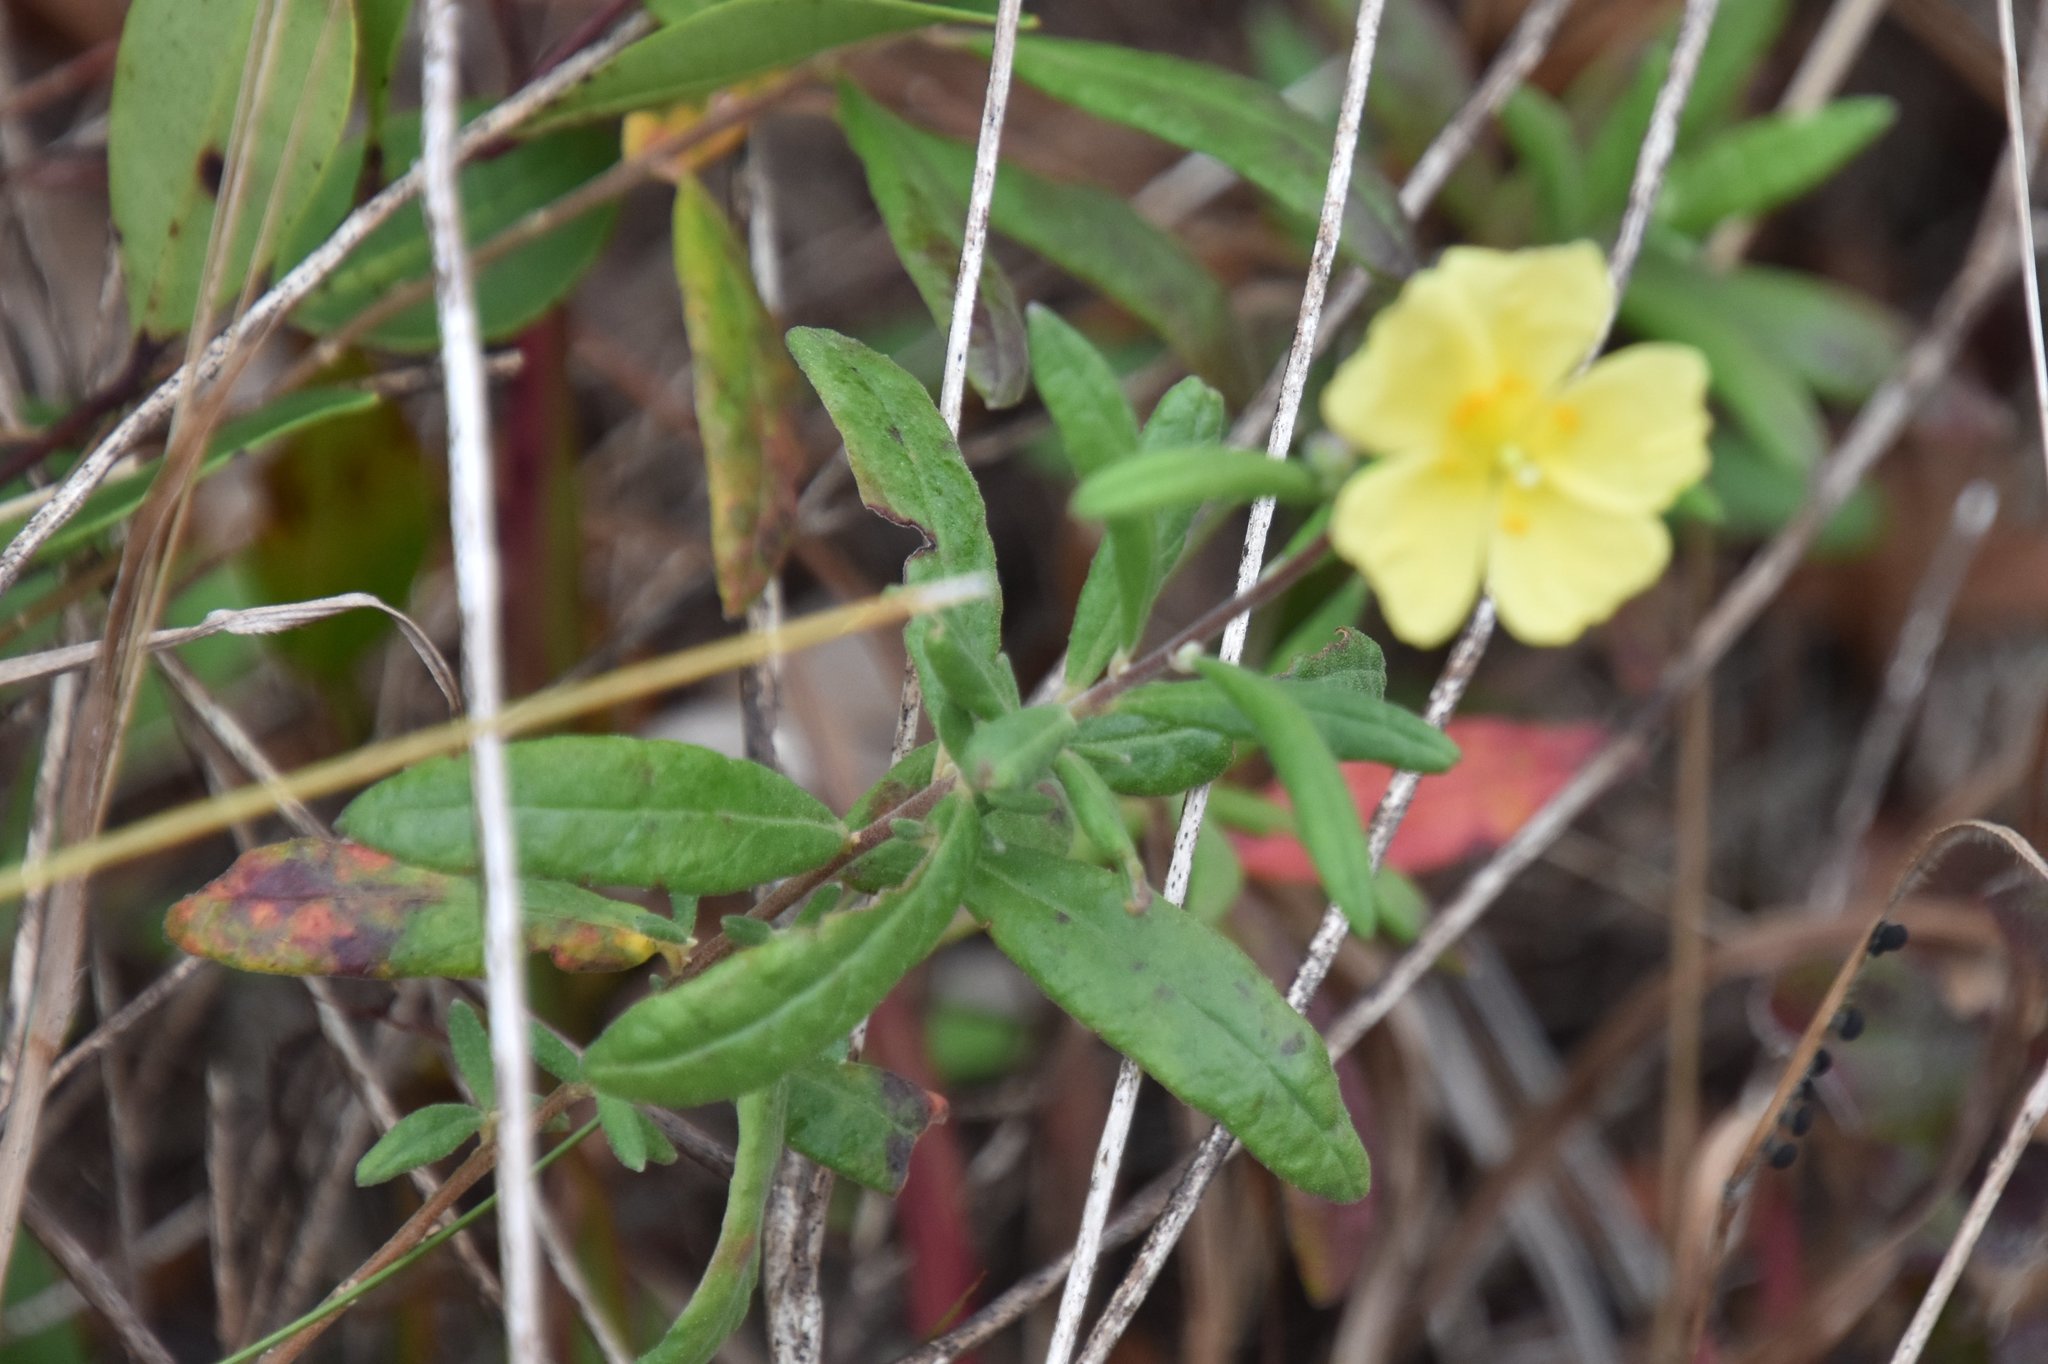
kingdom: Plantae
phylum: Tracheophyta
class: Magnoliopsida
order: Malvales
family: Cistaceae
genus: Crocanthemum
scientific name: Crocanthemum corymbosum
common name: Pinebarren sun-rose
